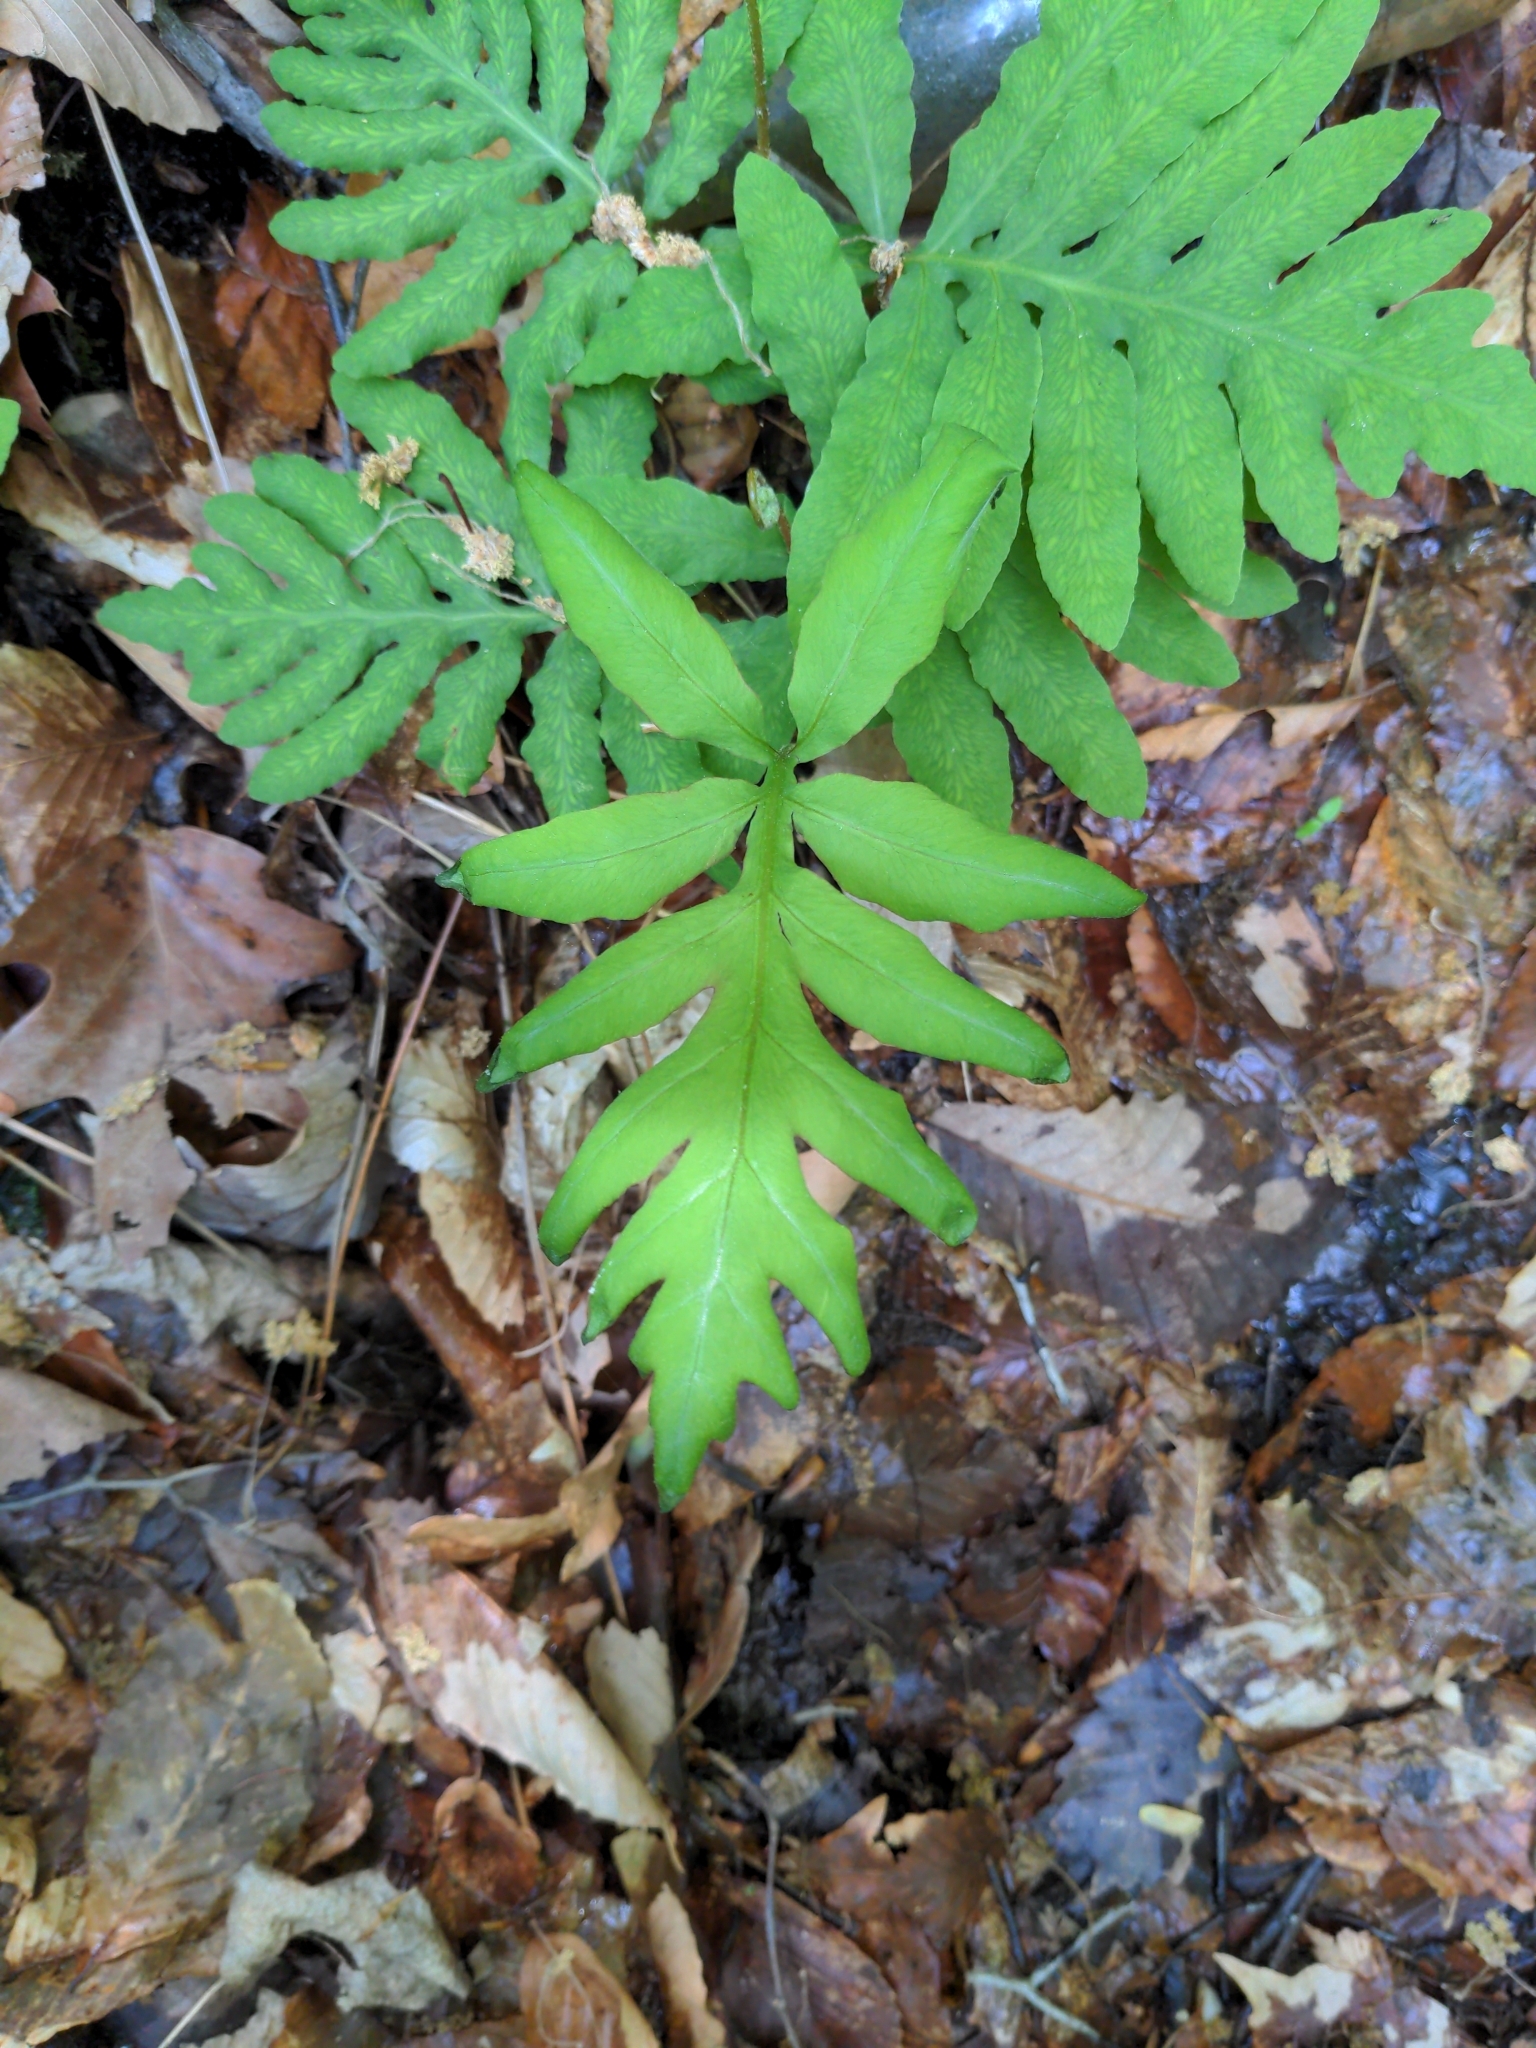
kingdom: Plantae
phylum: Tracheophyta
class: Polypodiopsida
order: Polypodiales
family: Onocleaceae
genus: Onoclea
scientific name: Onoclea sensibilis
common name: Sensitive fern
